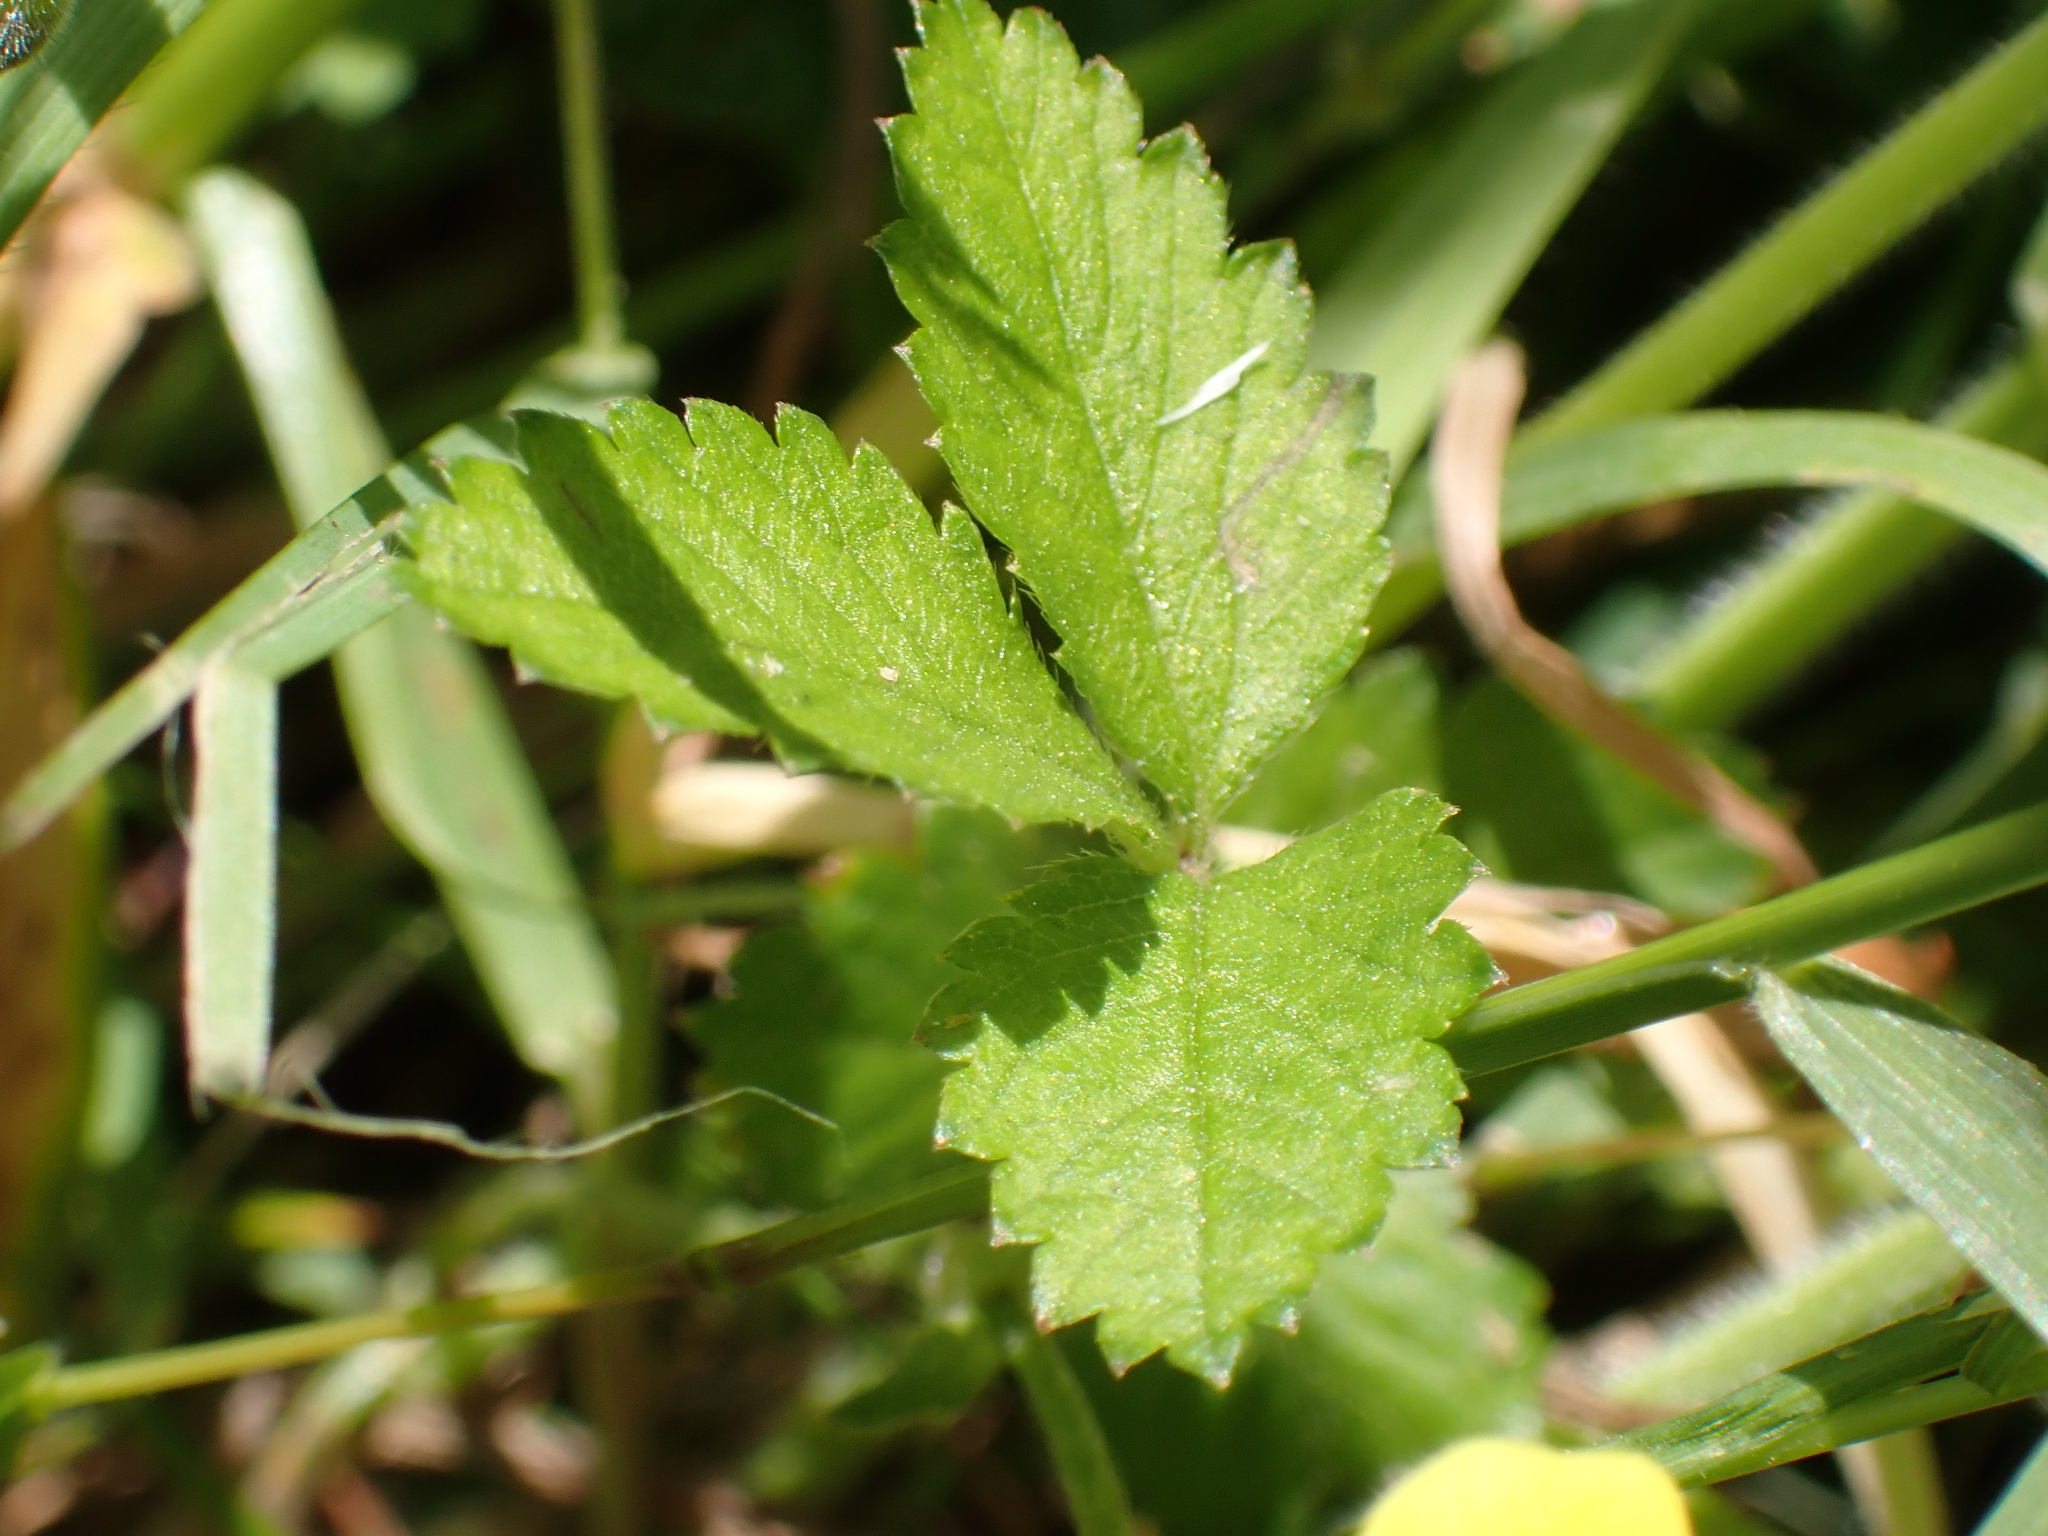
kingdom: Plantae
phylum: Tracheophyta
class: Magnoliopsida
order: Rosales
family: Rosaceae
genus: Potentilla
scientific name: Potentilla indica
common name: Yellow-flowered strawberry
